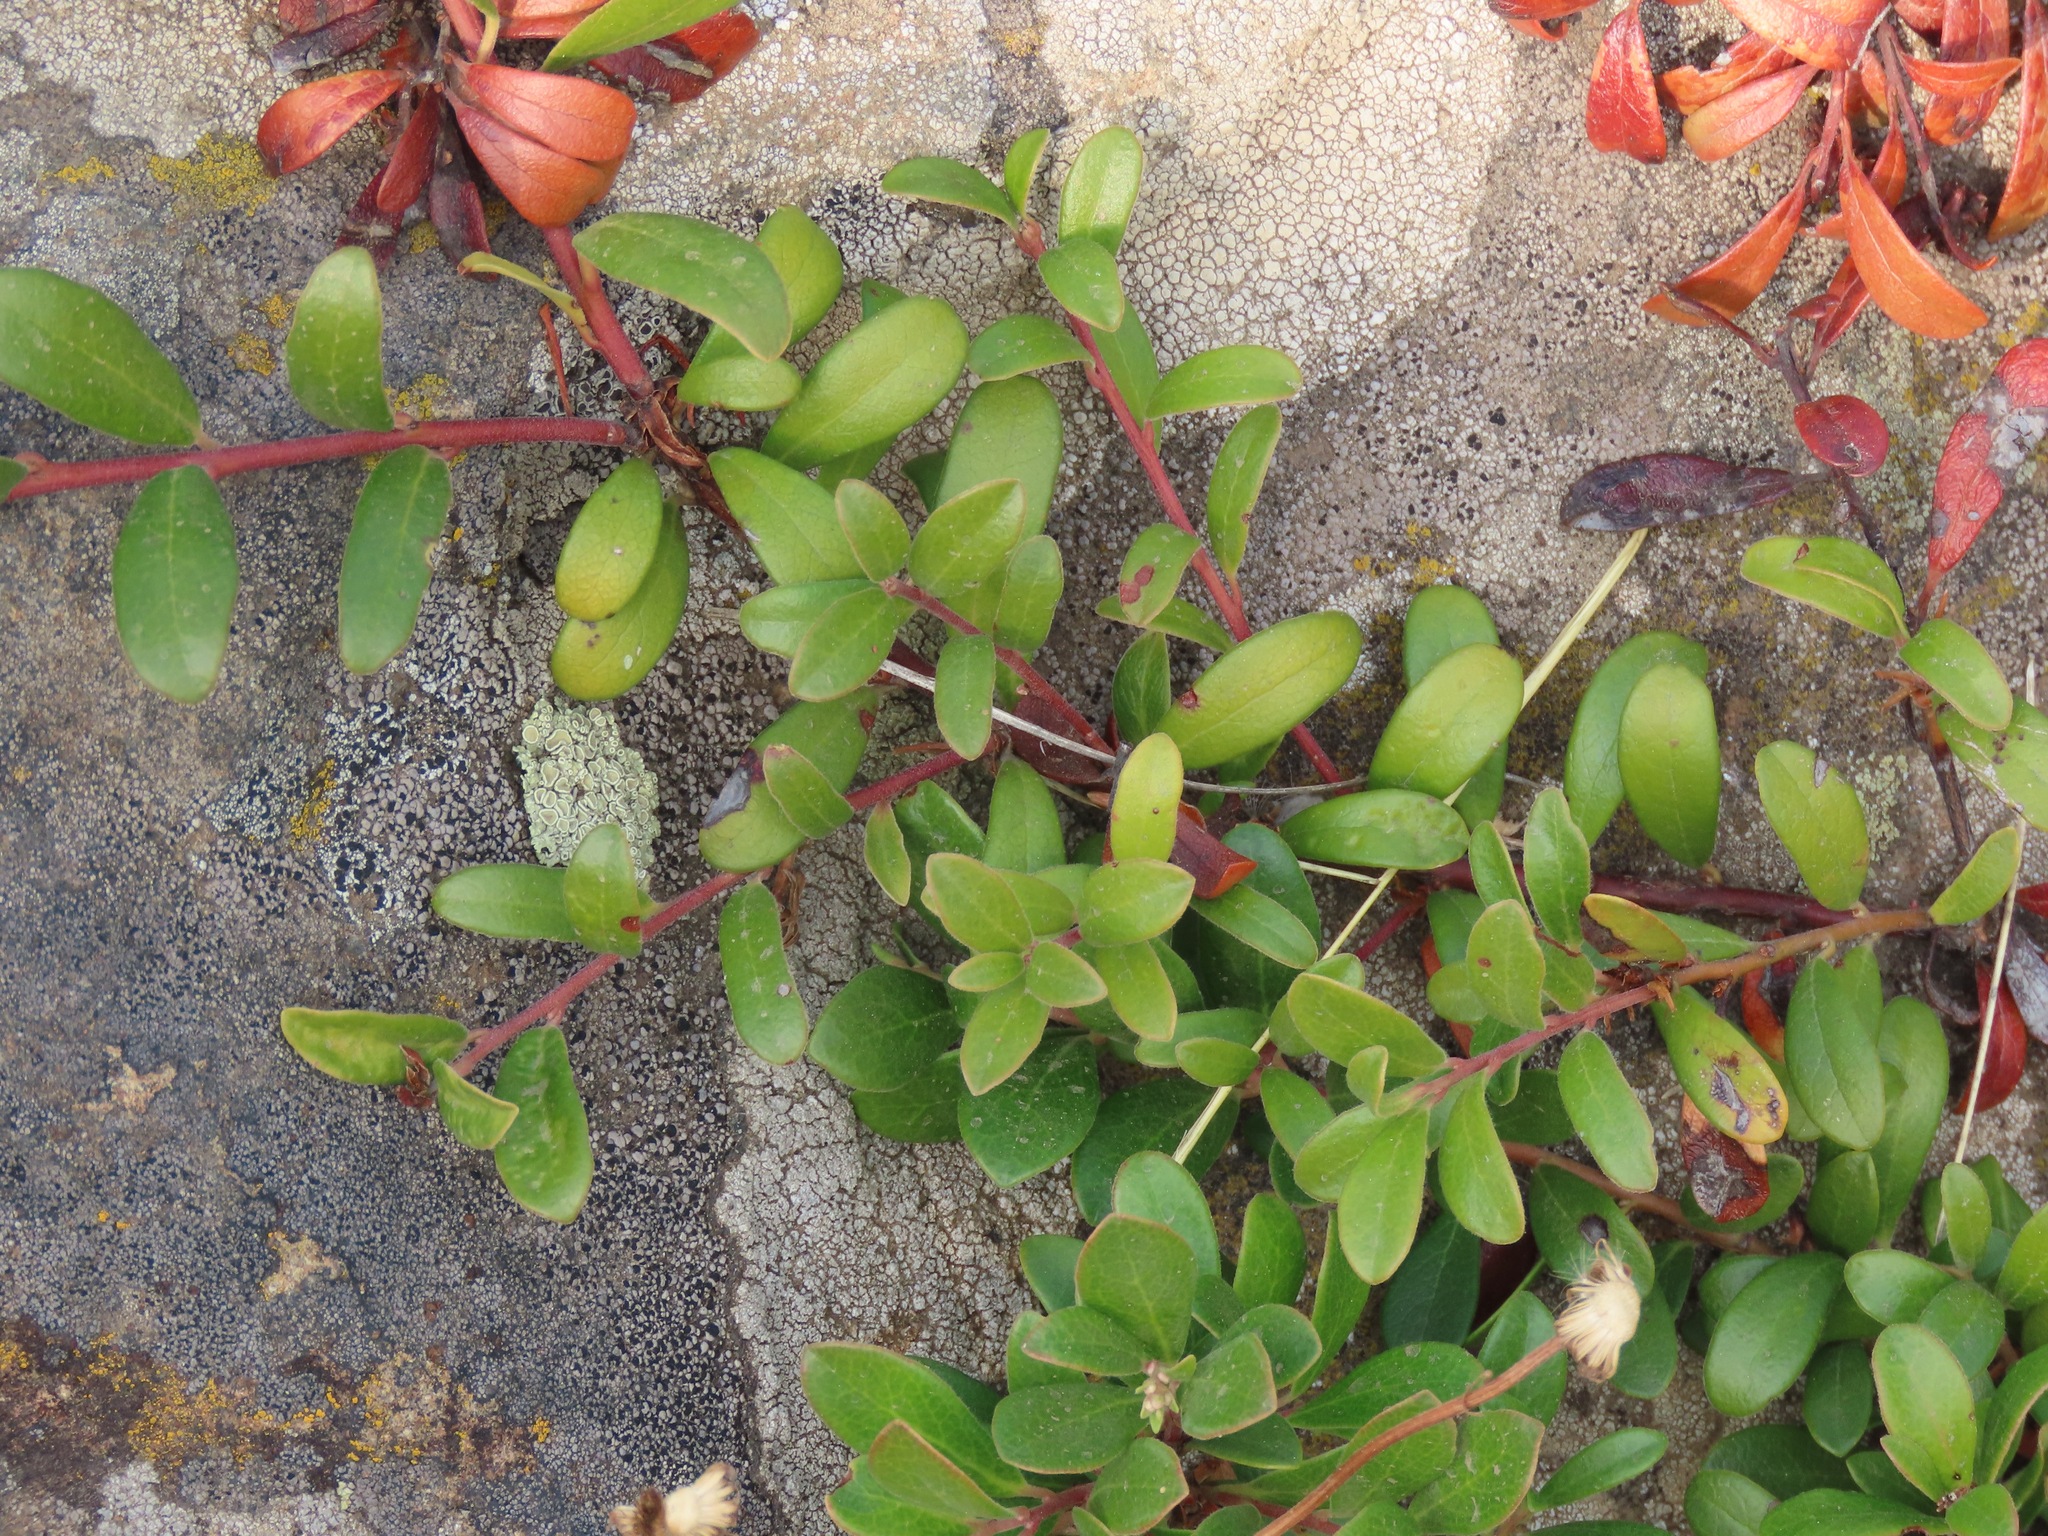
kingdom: Plantae
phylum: Tracheophyta
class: Magnoliopsida
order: Ericales
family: Ericaceae
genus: Arctostaphylos
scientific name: Arctostaphylos uva-ursi
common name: Bearberry
